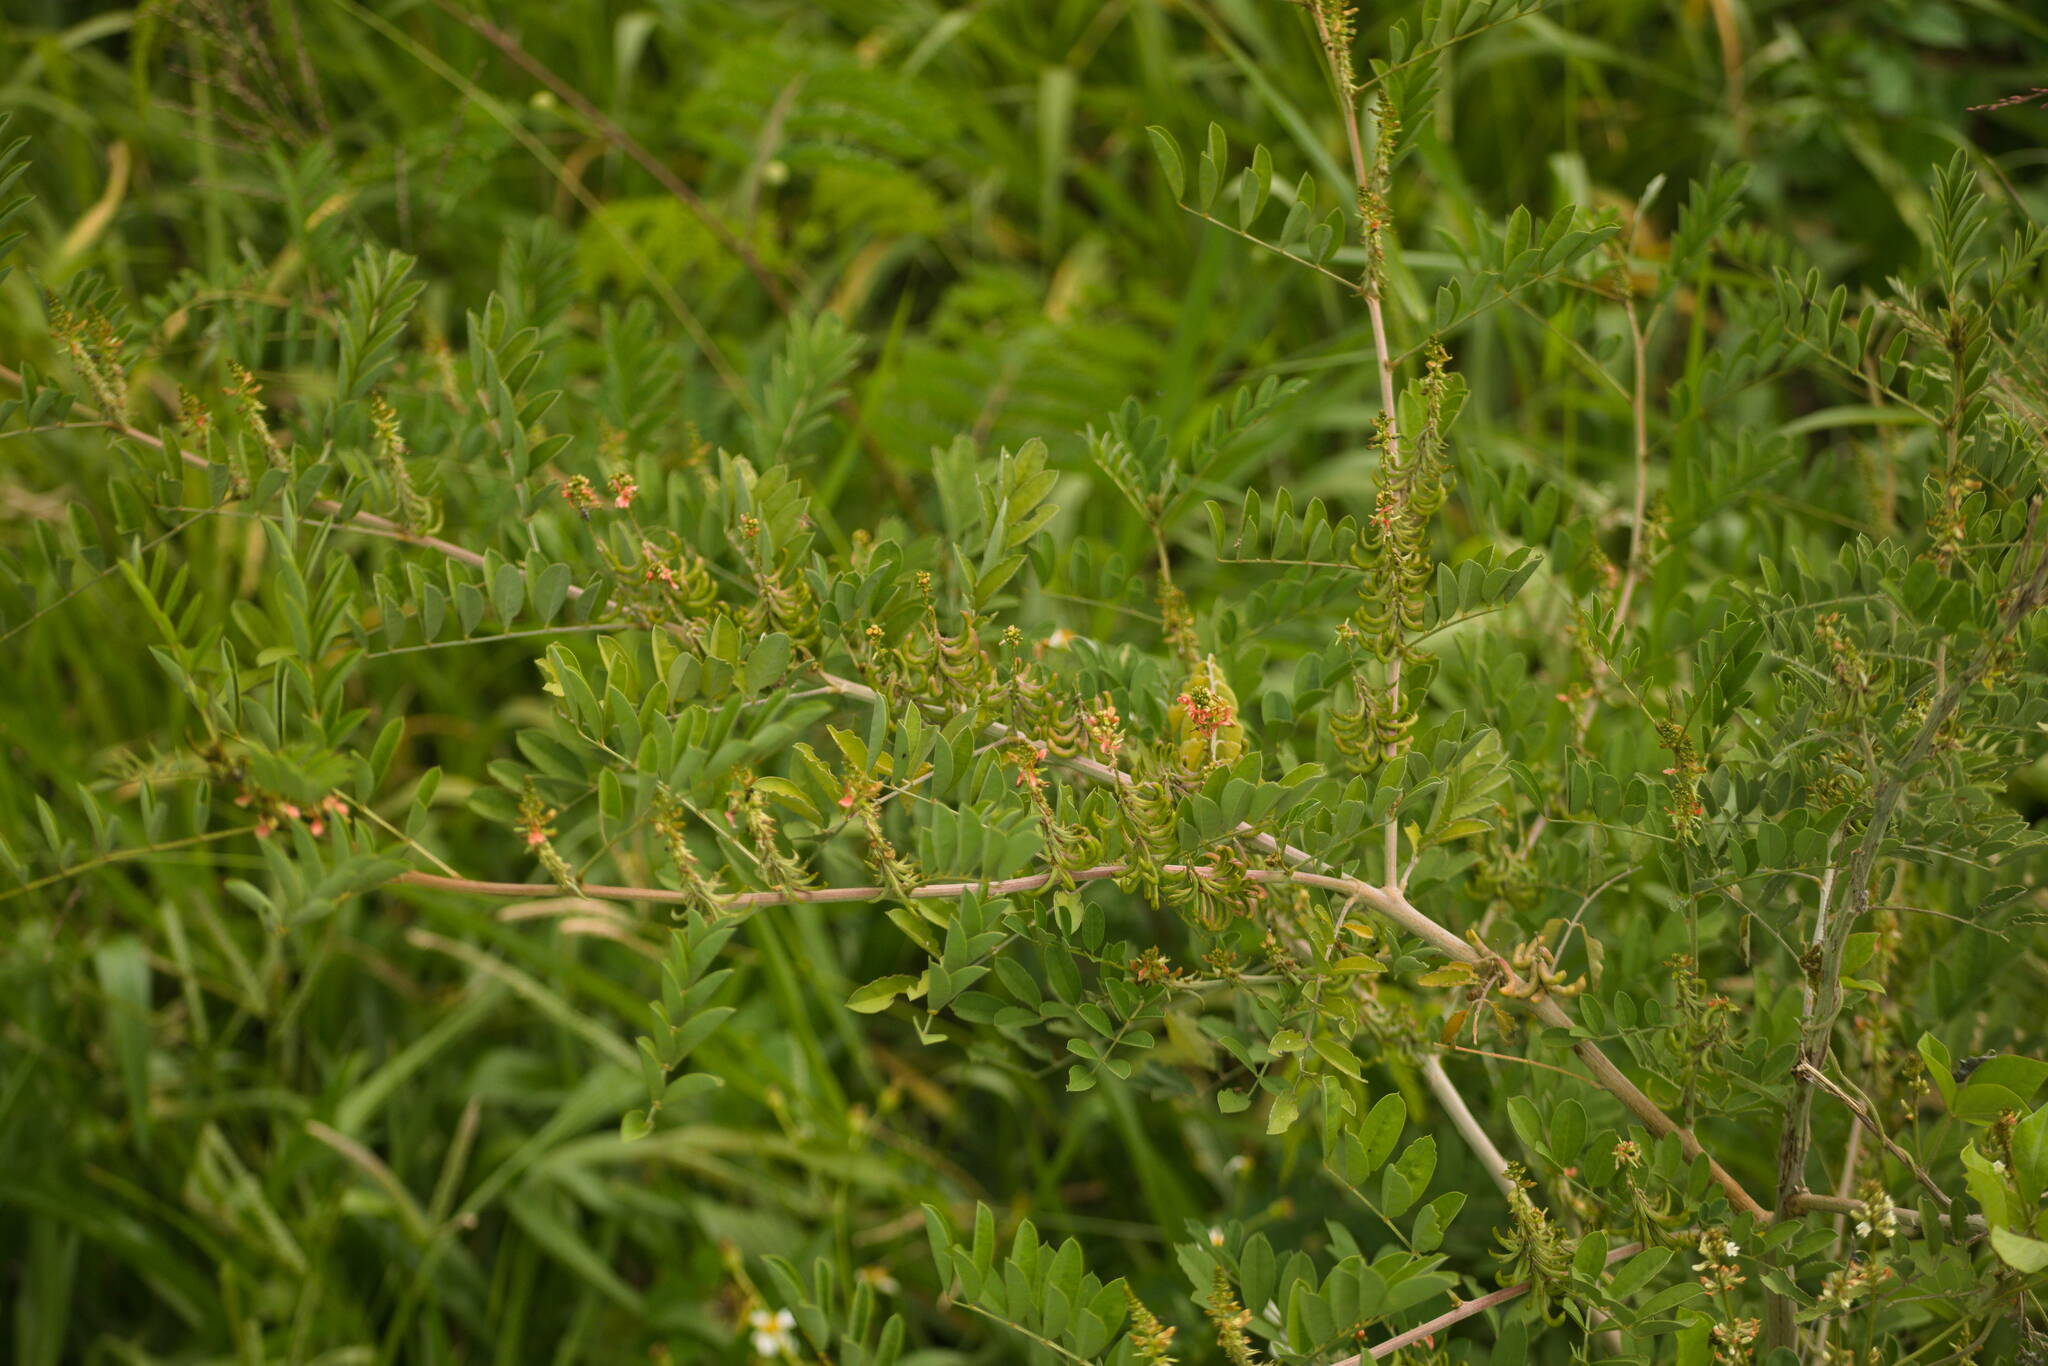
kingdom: Plantae
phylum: Tracheophyta
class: Magnoliopsida
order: Fabales
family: Fabaceae
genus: Indigofera
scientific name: Indigofera suffruticosa
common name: Anil de pasto
